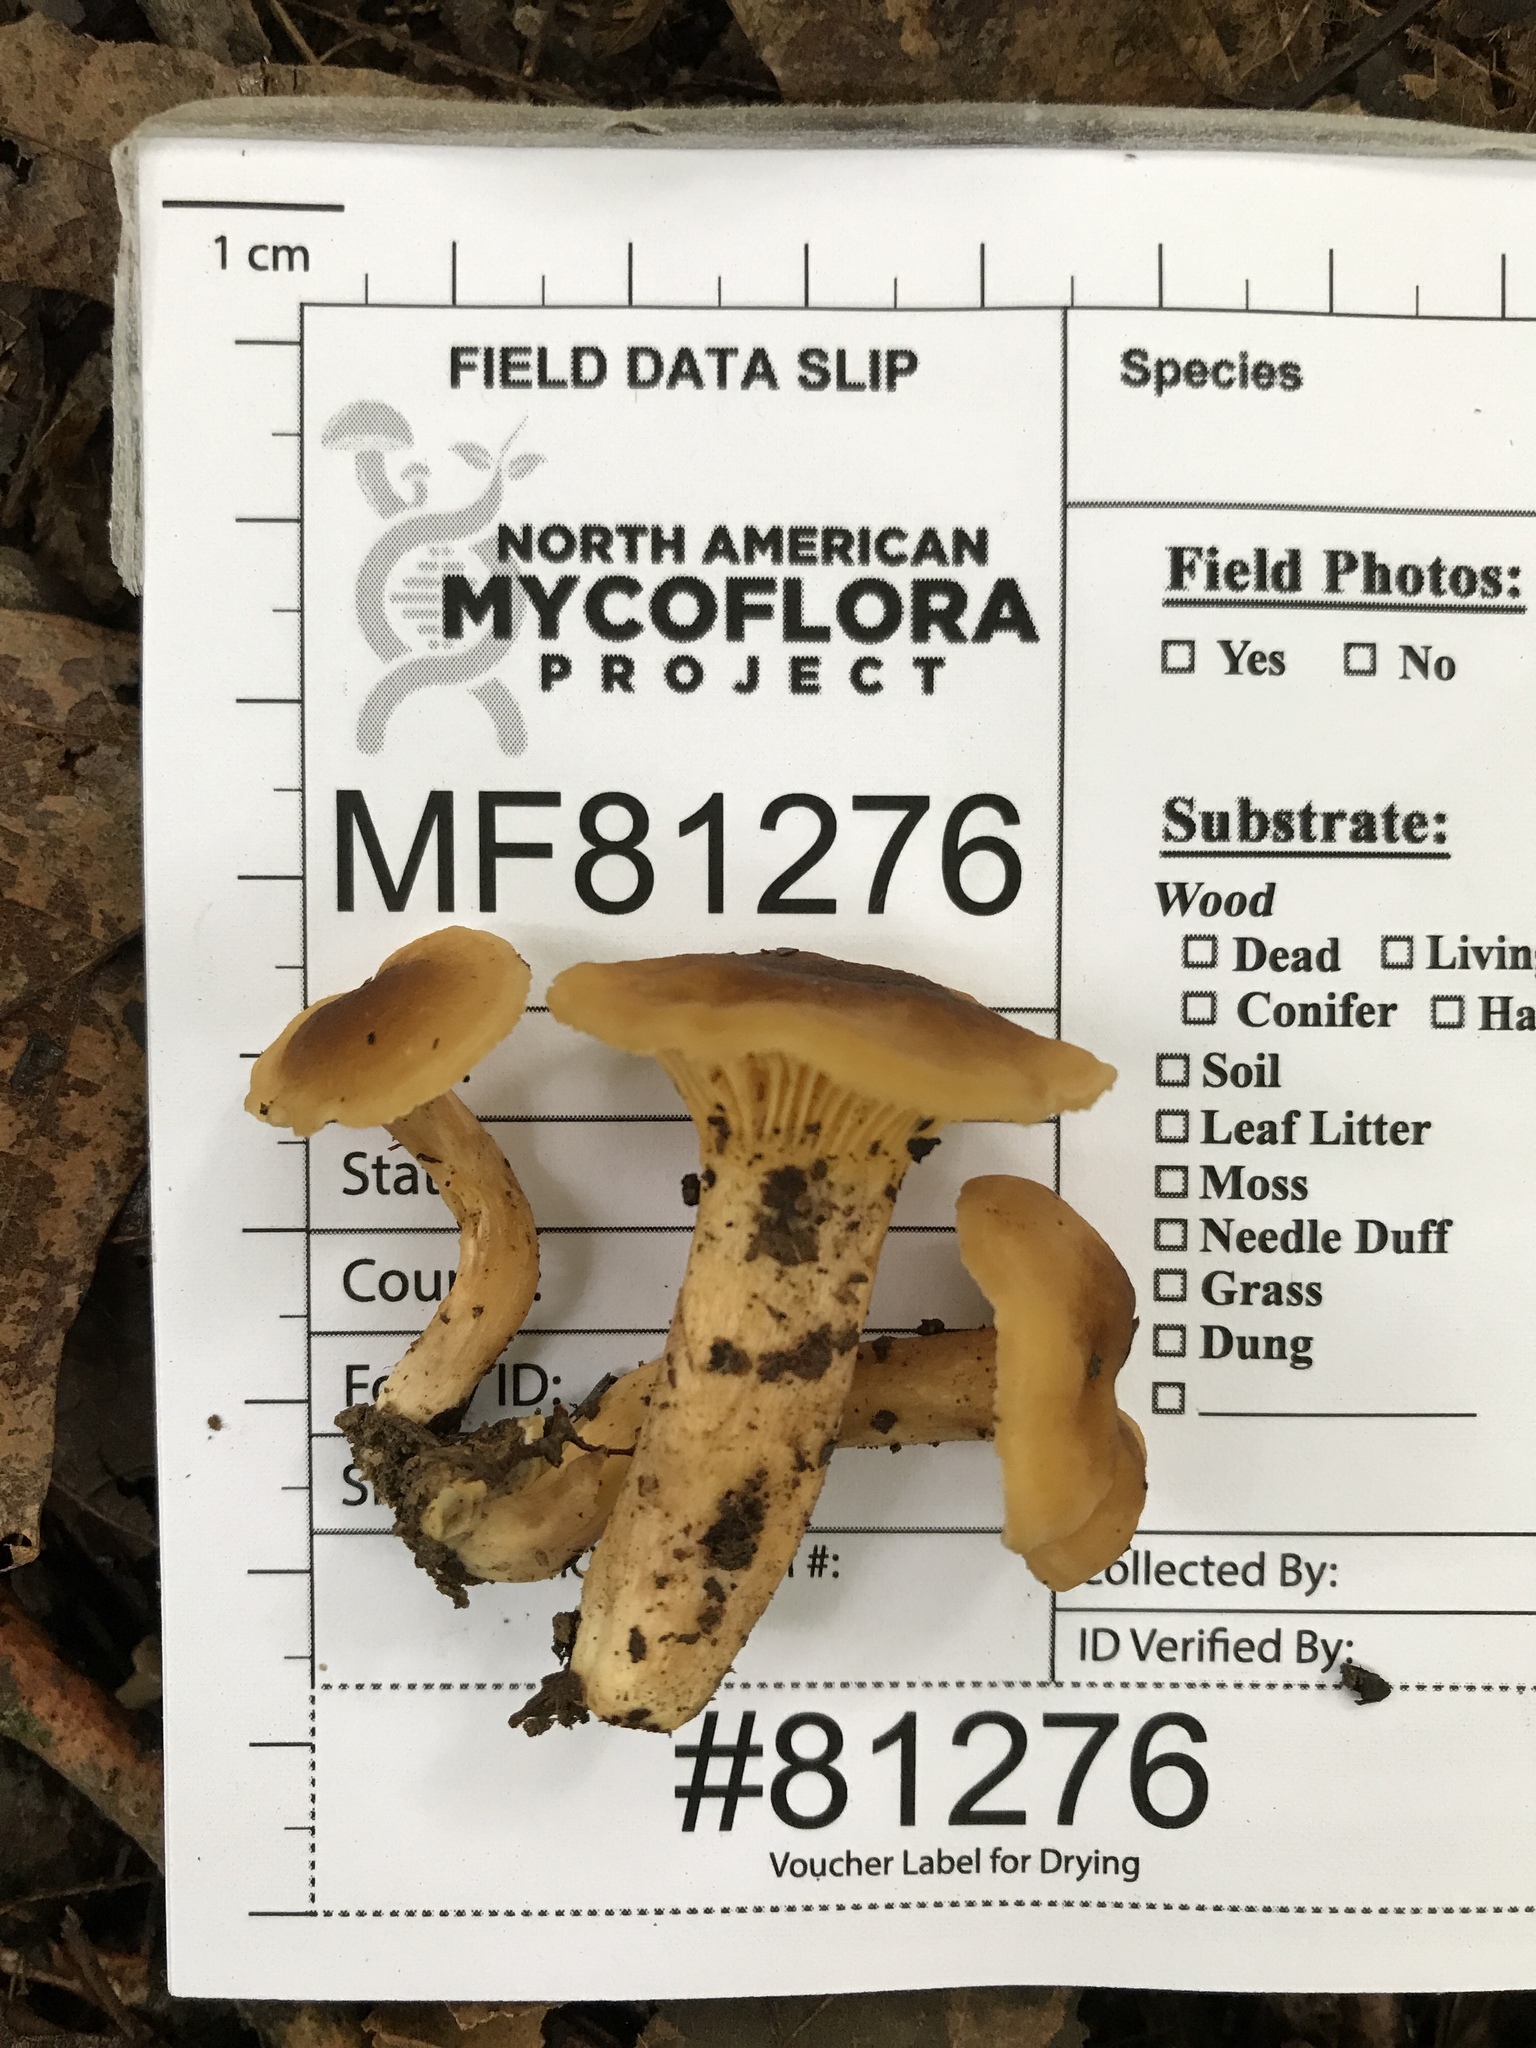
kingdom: Fungi
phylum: Basidiomycota
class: Agaricomycetes
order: Cantharellales
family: Hydnaceae
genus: Cantharellus
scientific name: Cantharellus appalachiensis
